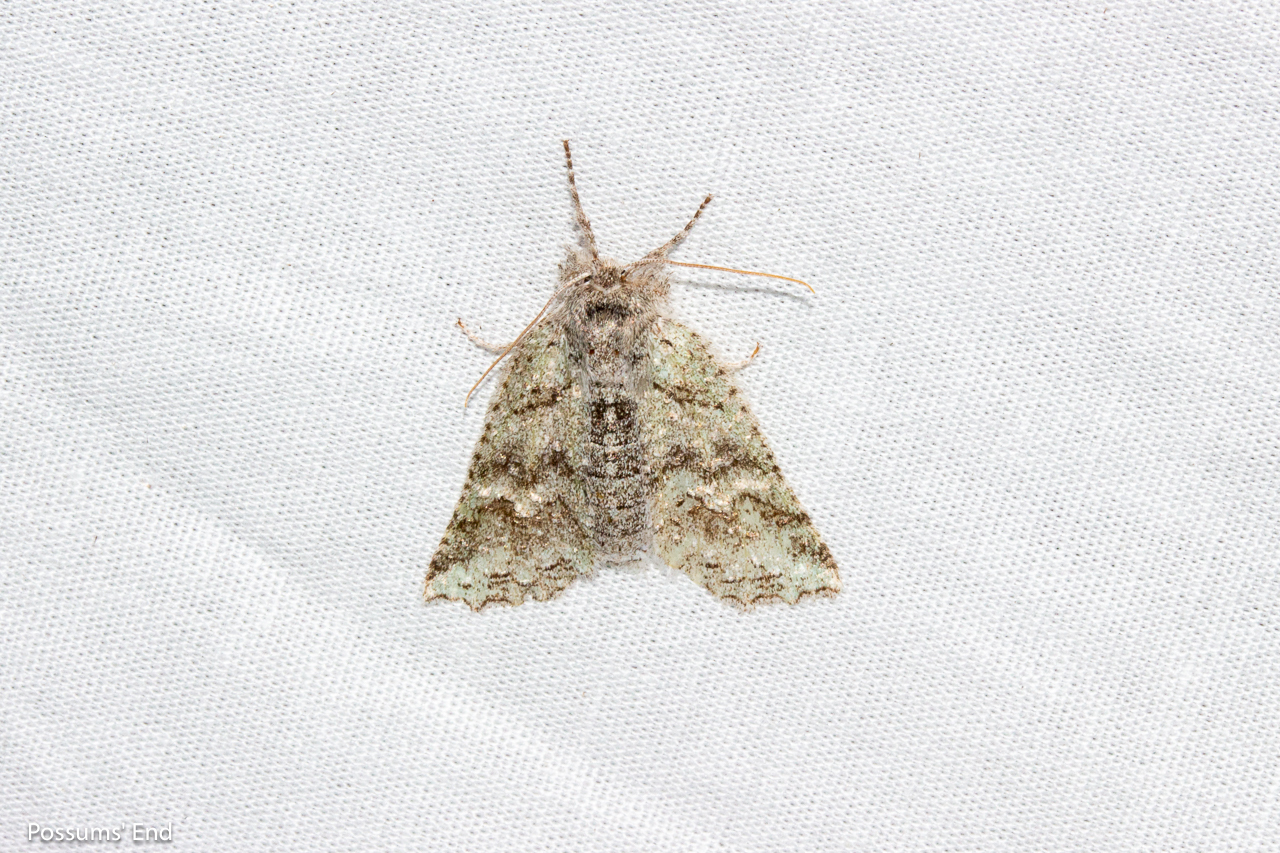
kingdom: Animalia
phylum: Arthropoda
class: Insecta
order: Lepidoptera
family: Geometridae
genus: Declana
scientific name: Declana niveata
